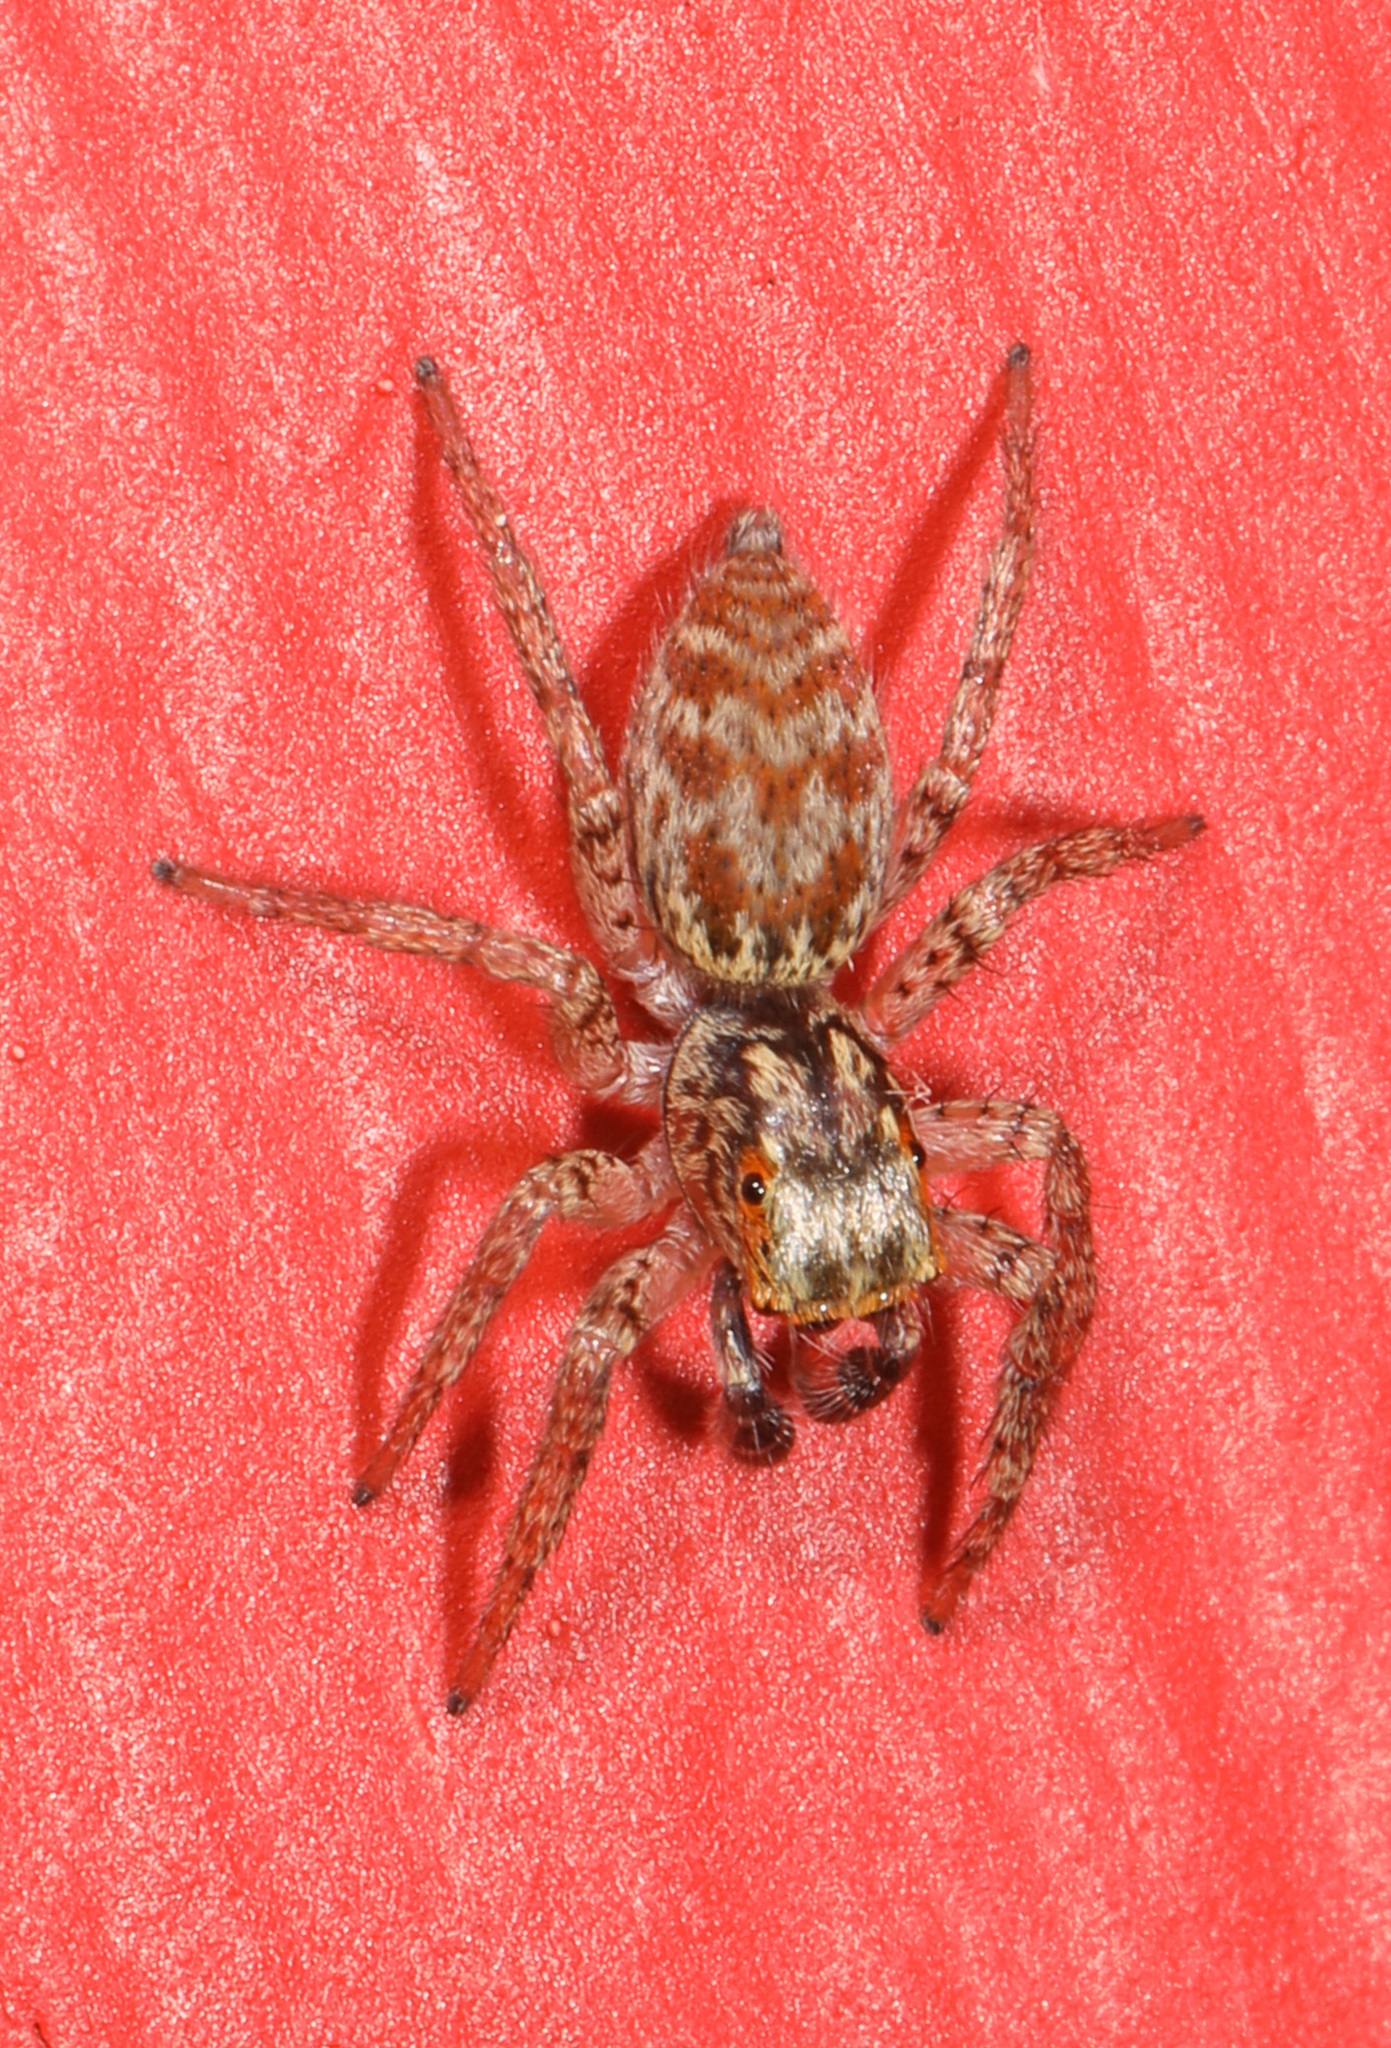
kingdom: Animalia
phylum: Arthropoda
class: Arachnida
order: Araneae
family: Salticidae
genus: Maevia
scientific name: Maevia inclemens
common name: Dimorphic jumper
